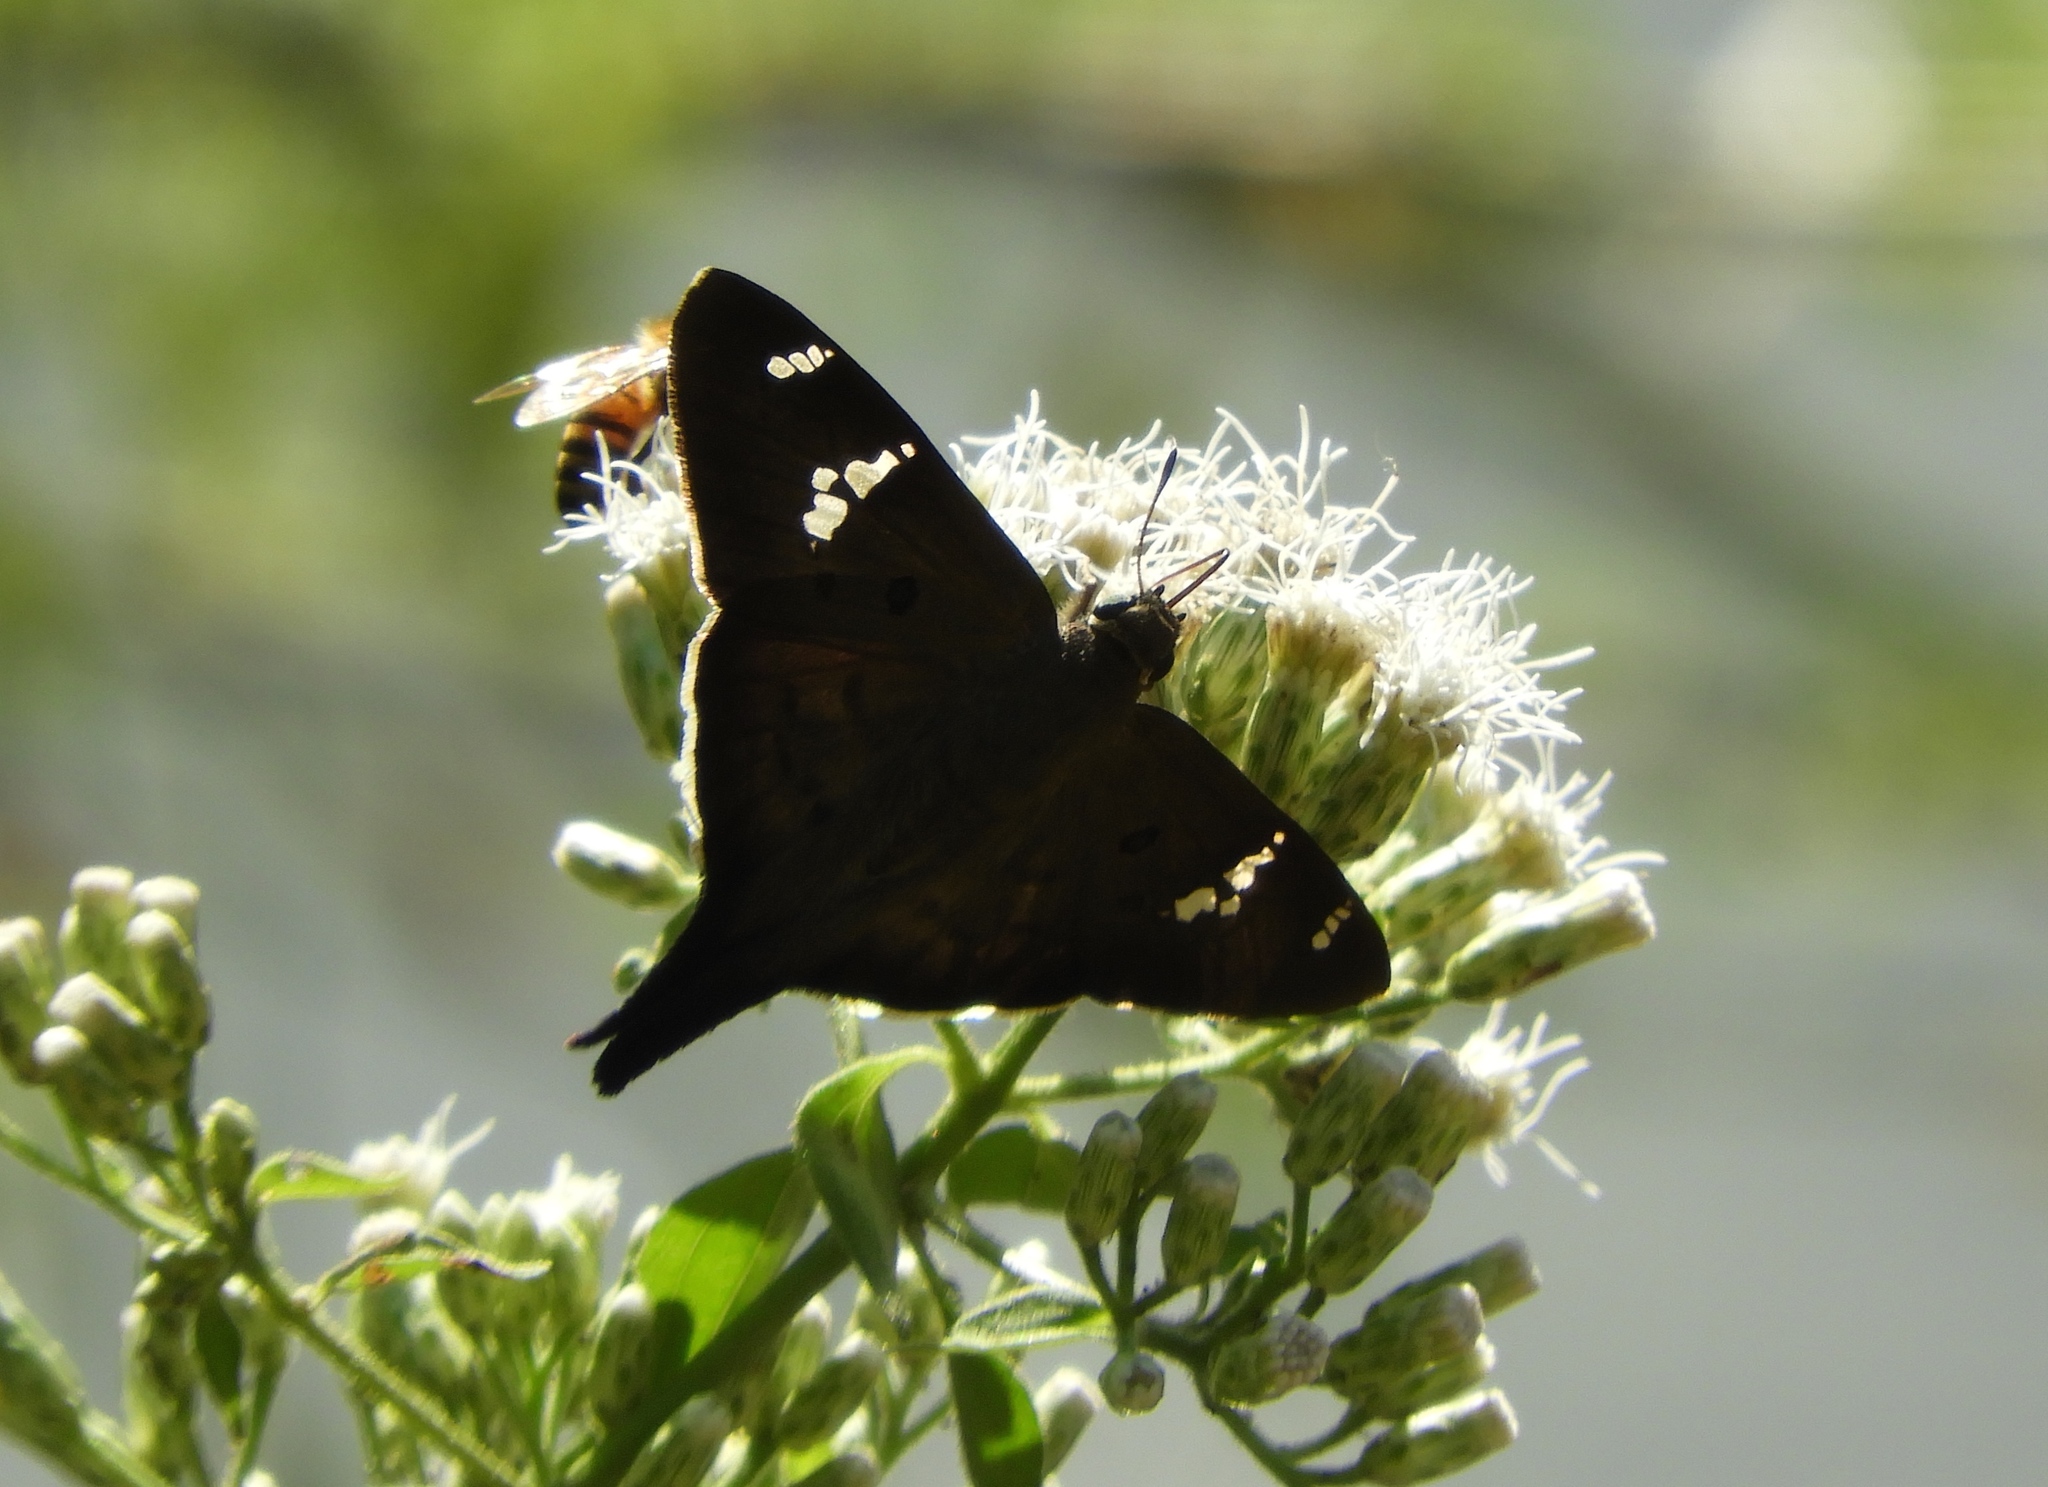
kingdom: Animalia
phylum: Arthropoda
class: Insecta
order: Lepidoptera
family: Hesperiidae
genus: Ectomis
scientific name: Ectomis
